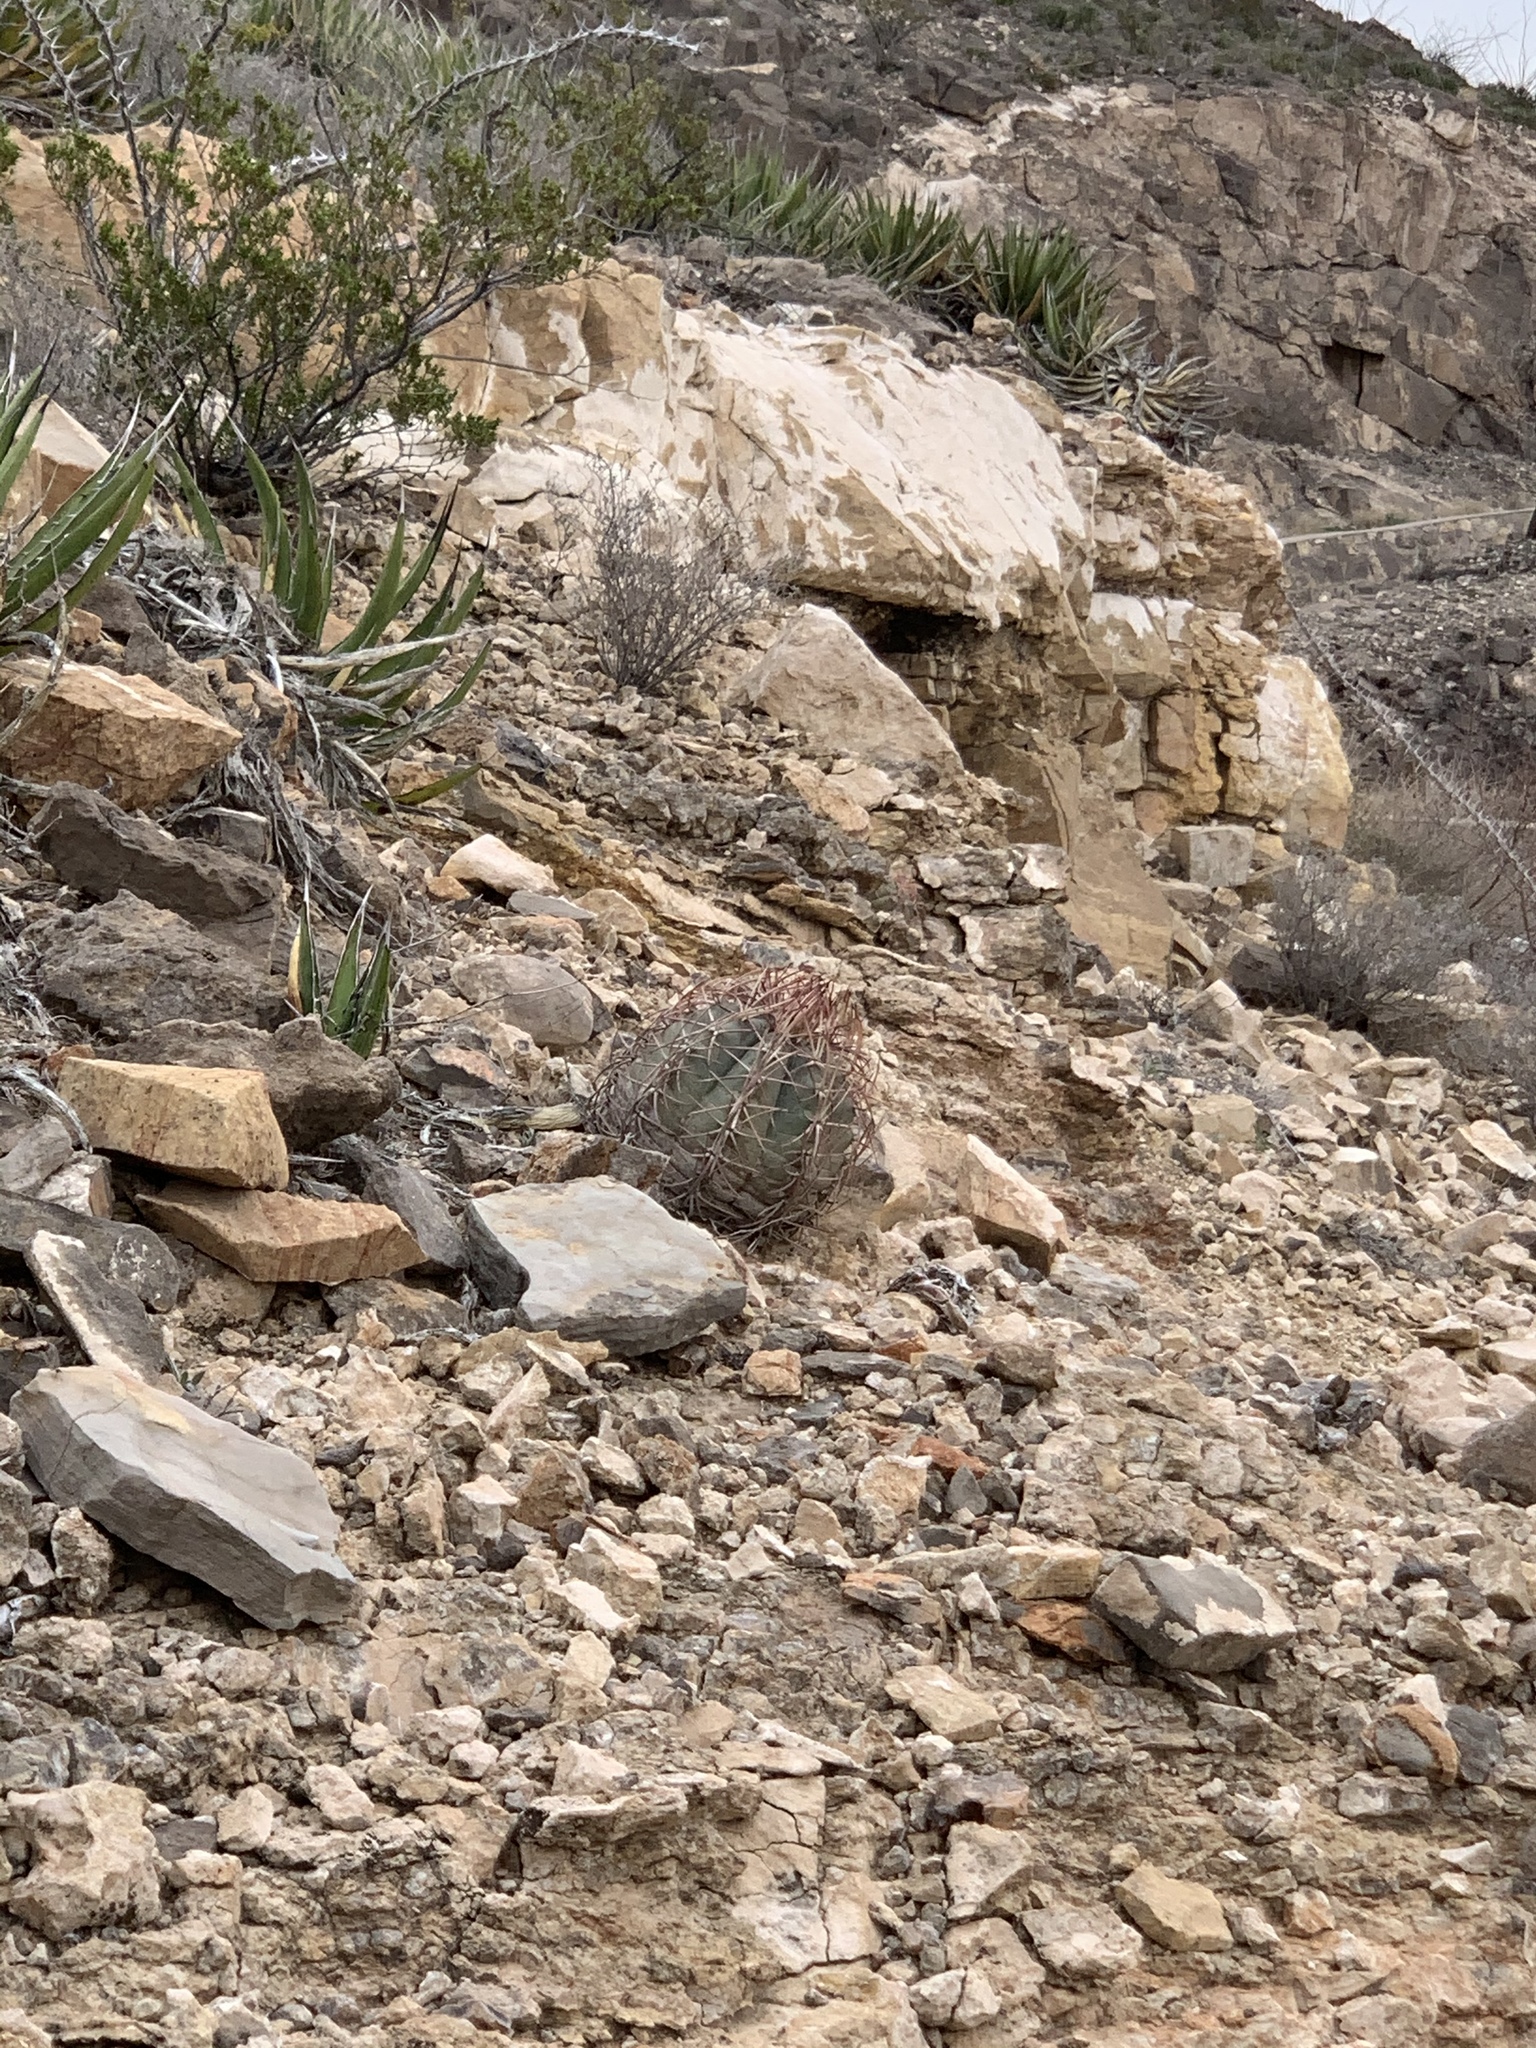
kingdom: Plantae
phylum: Tracheophyta
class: Magnoliopsida
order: Caryophyllales
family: Cactaceae
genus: Echinocactus
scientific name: Echinocactus horizonthalonius
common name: Devilshead
